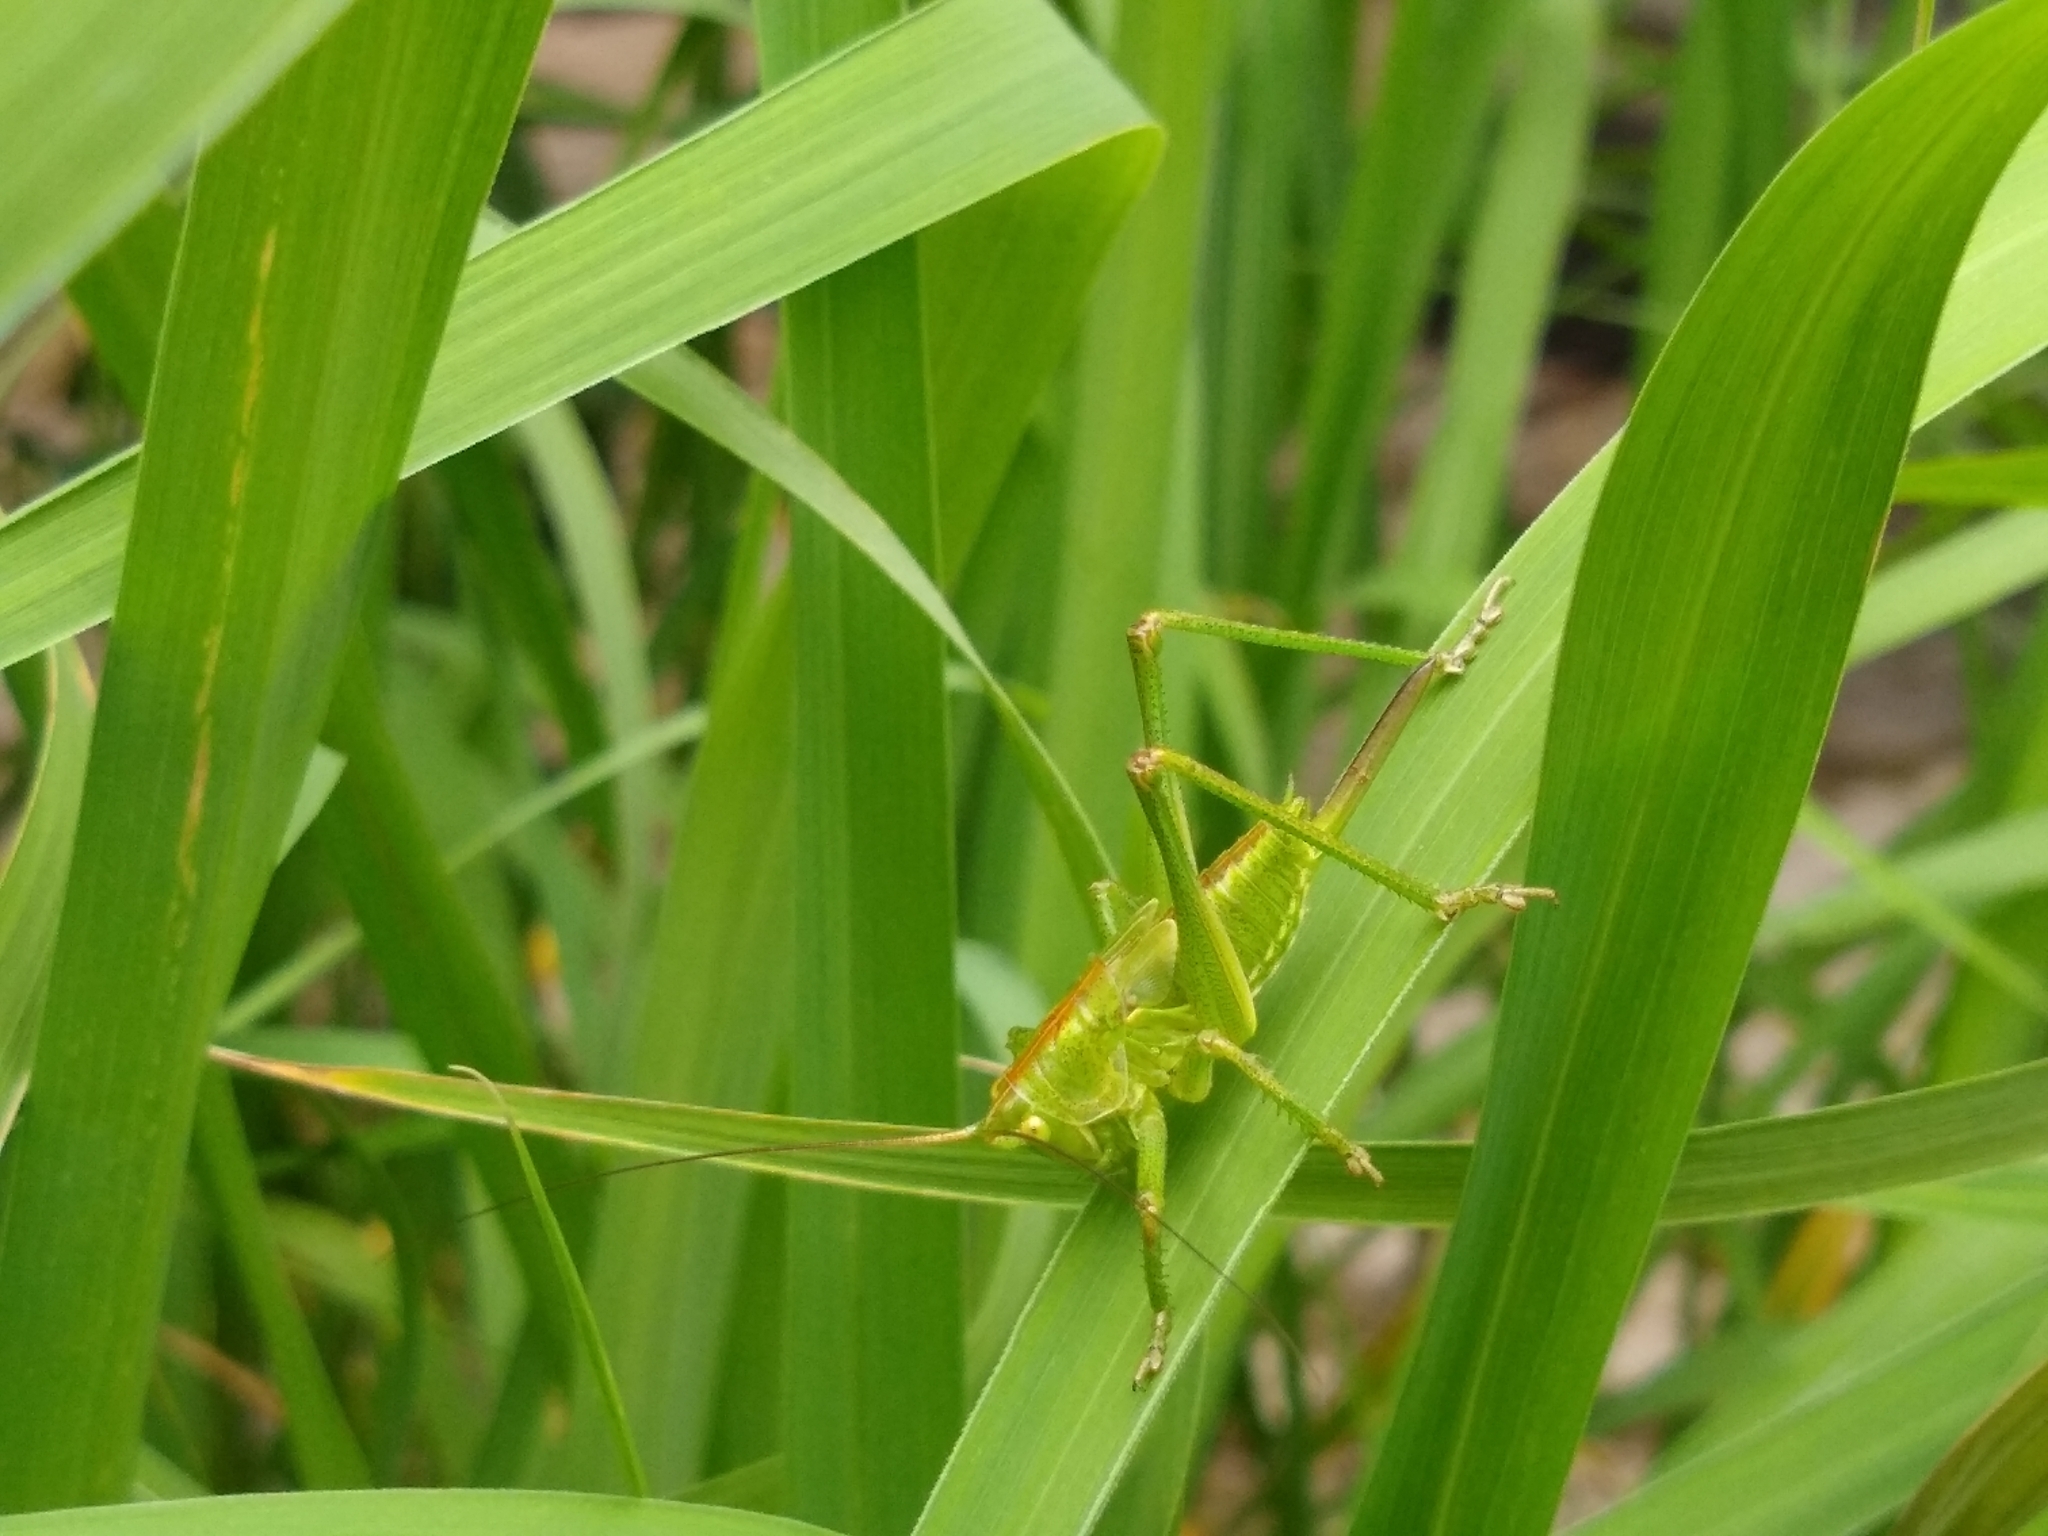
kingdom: Animalia
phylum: Arthropoda
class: Insecta
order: Orthoptera
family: Tettigoniidae
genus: Tettigonia
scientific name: Tettigonia viridissima
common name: Great green bush-cricket
